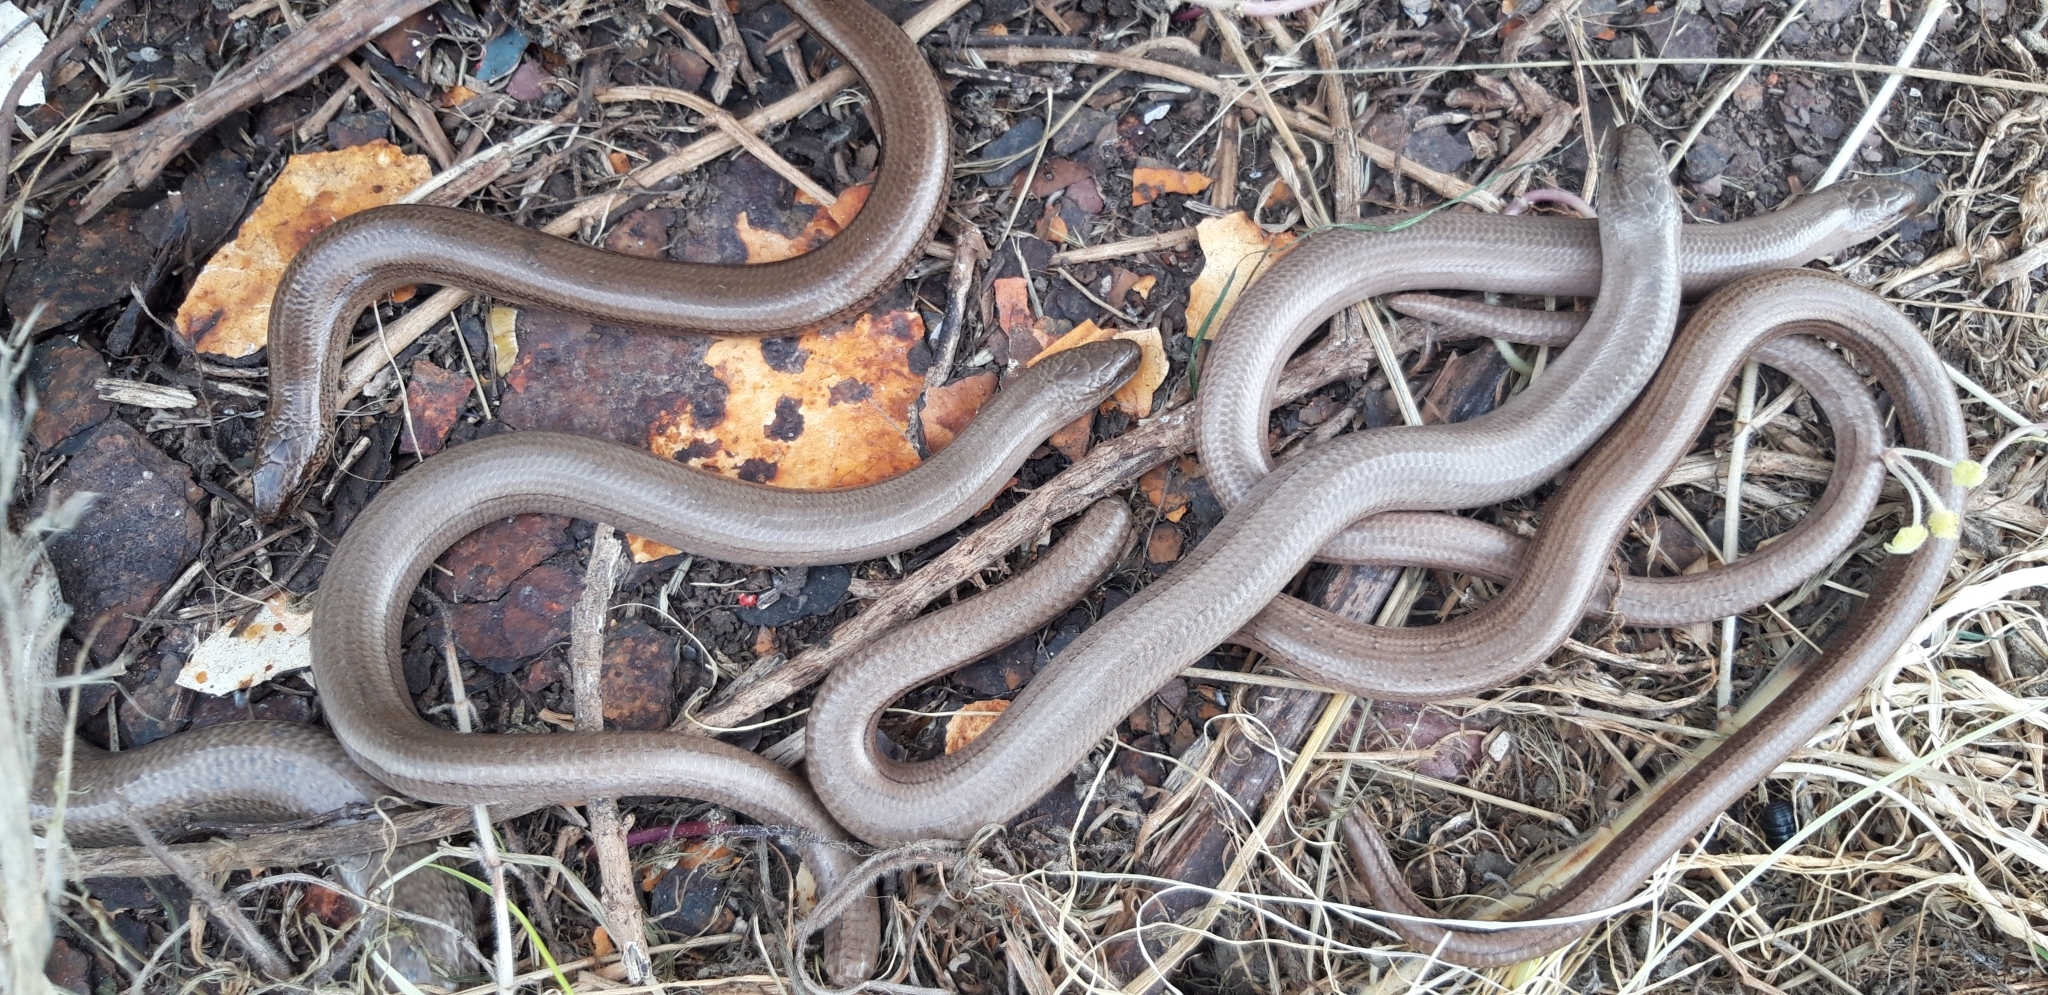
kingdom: Animalia
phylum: Chordata
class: Squamata
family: Anguidae
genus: Anguis
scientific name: Anguis fragilis
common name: Slow worm
